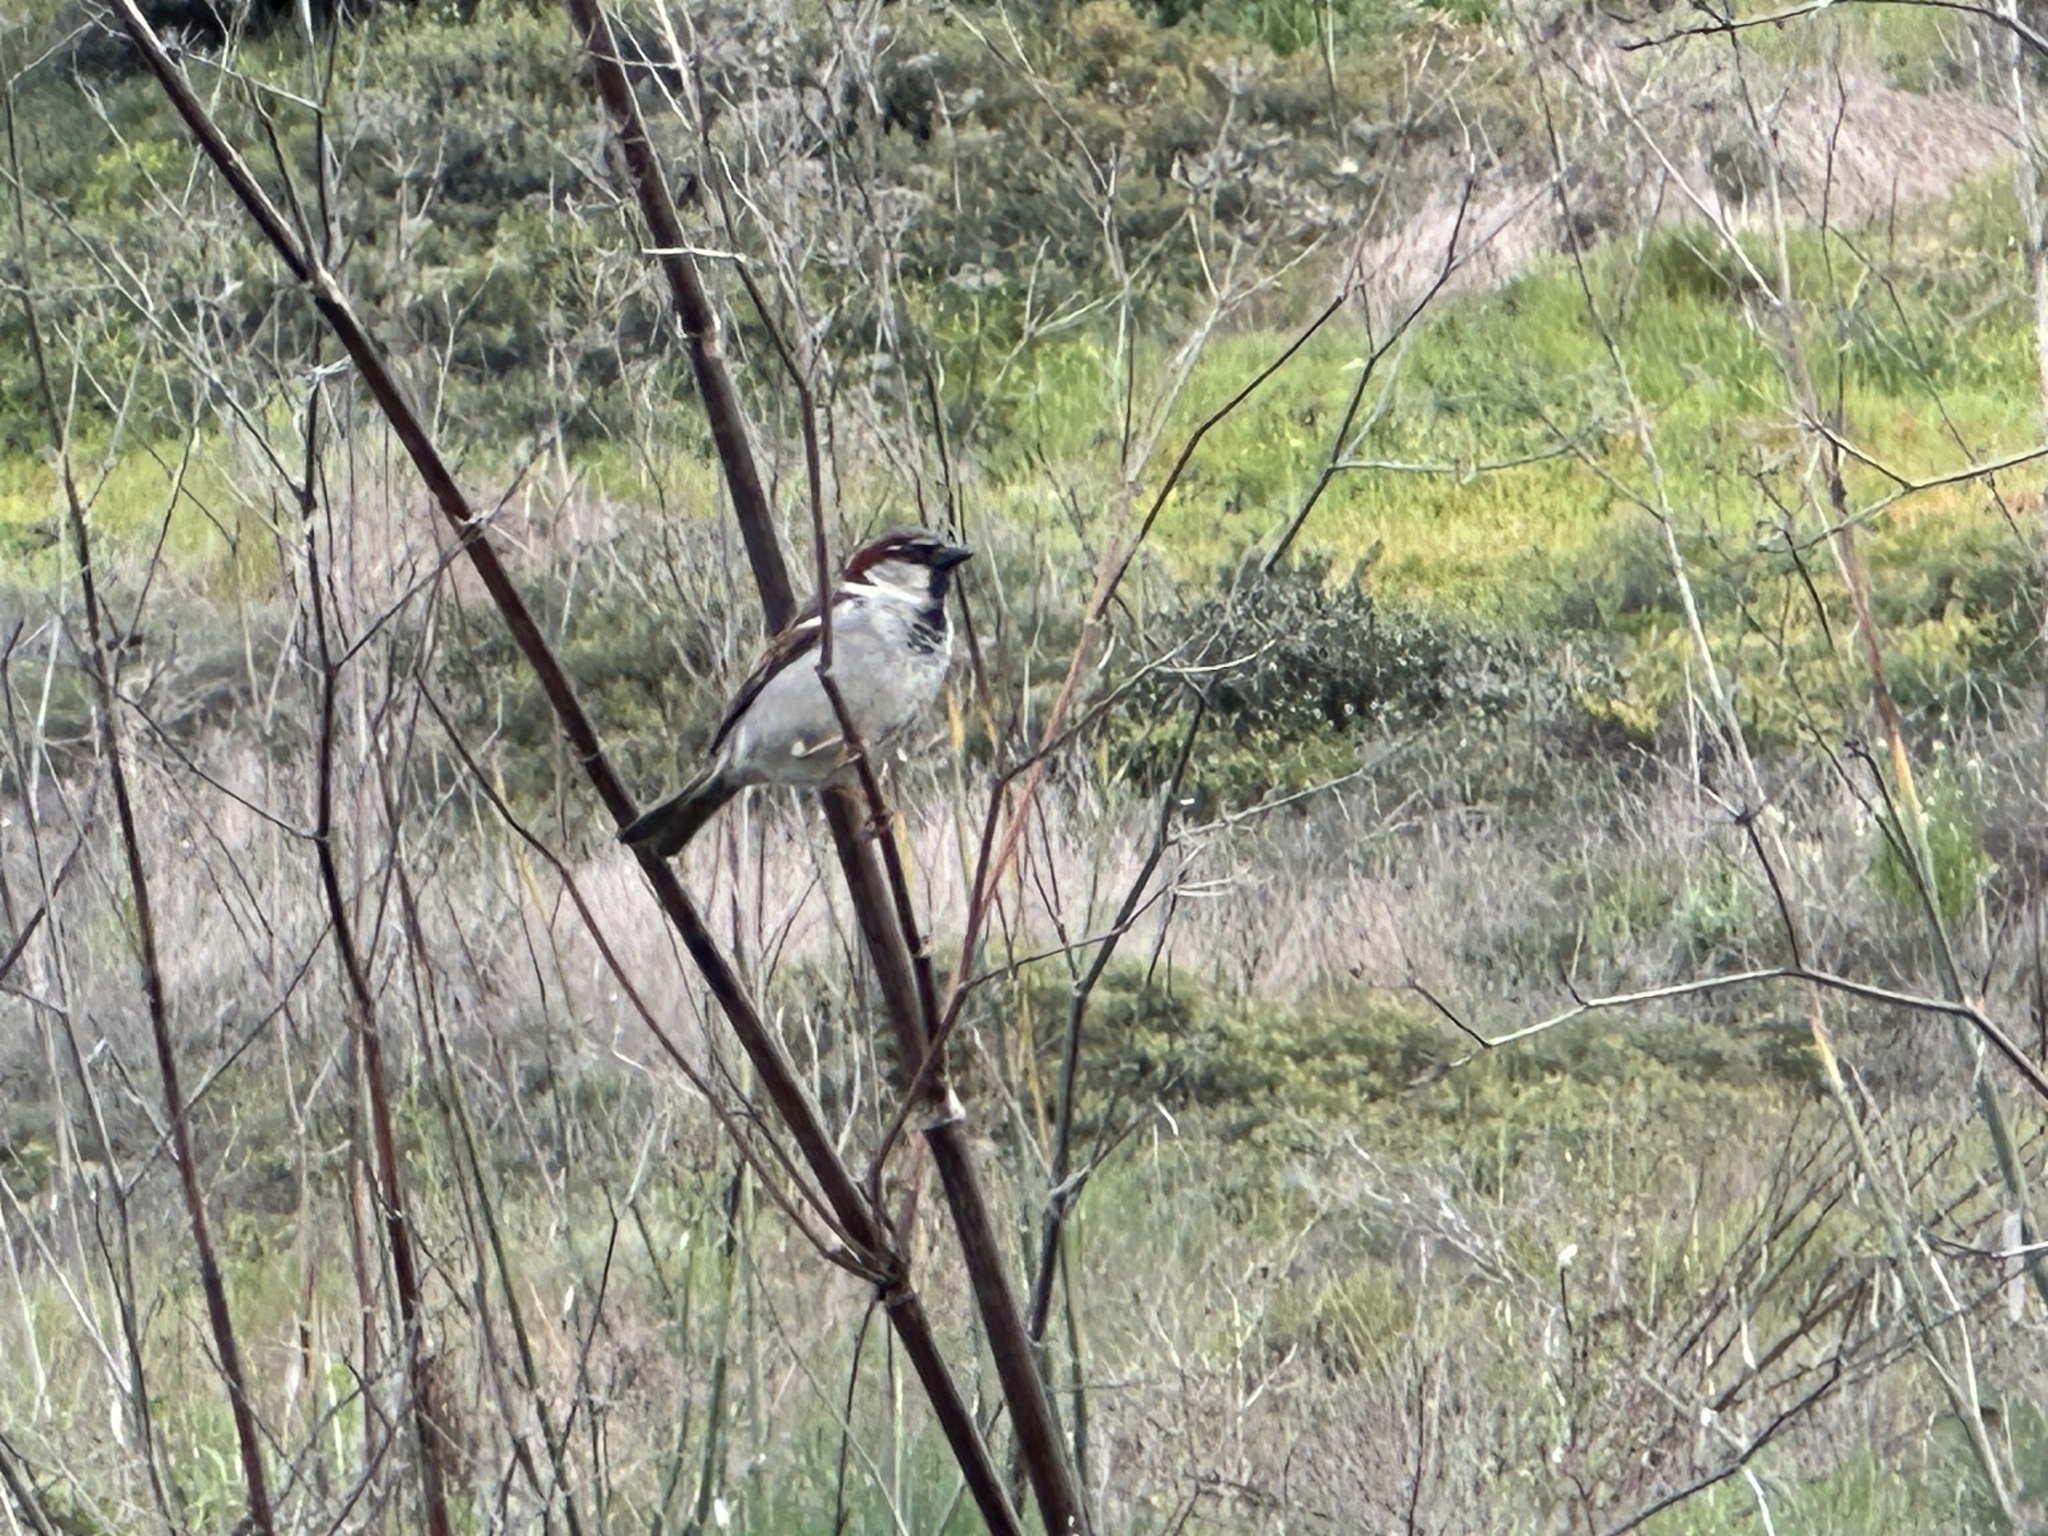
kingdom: Animalia
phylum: Chordata
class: Aves
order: Passeriformes
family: Passeridae
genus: Passer
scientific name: Passer domesticus
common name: House sparrow
